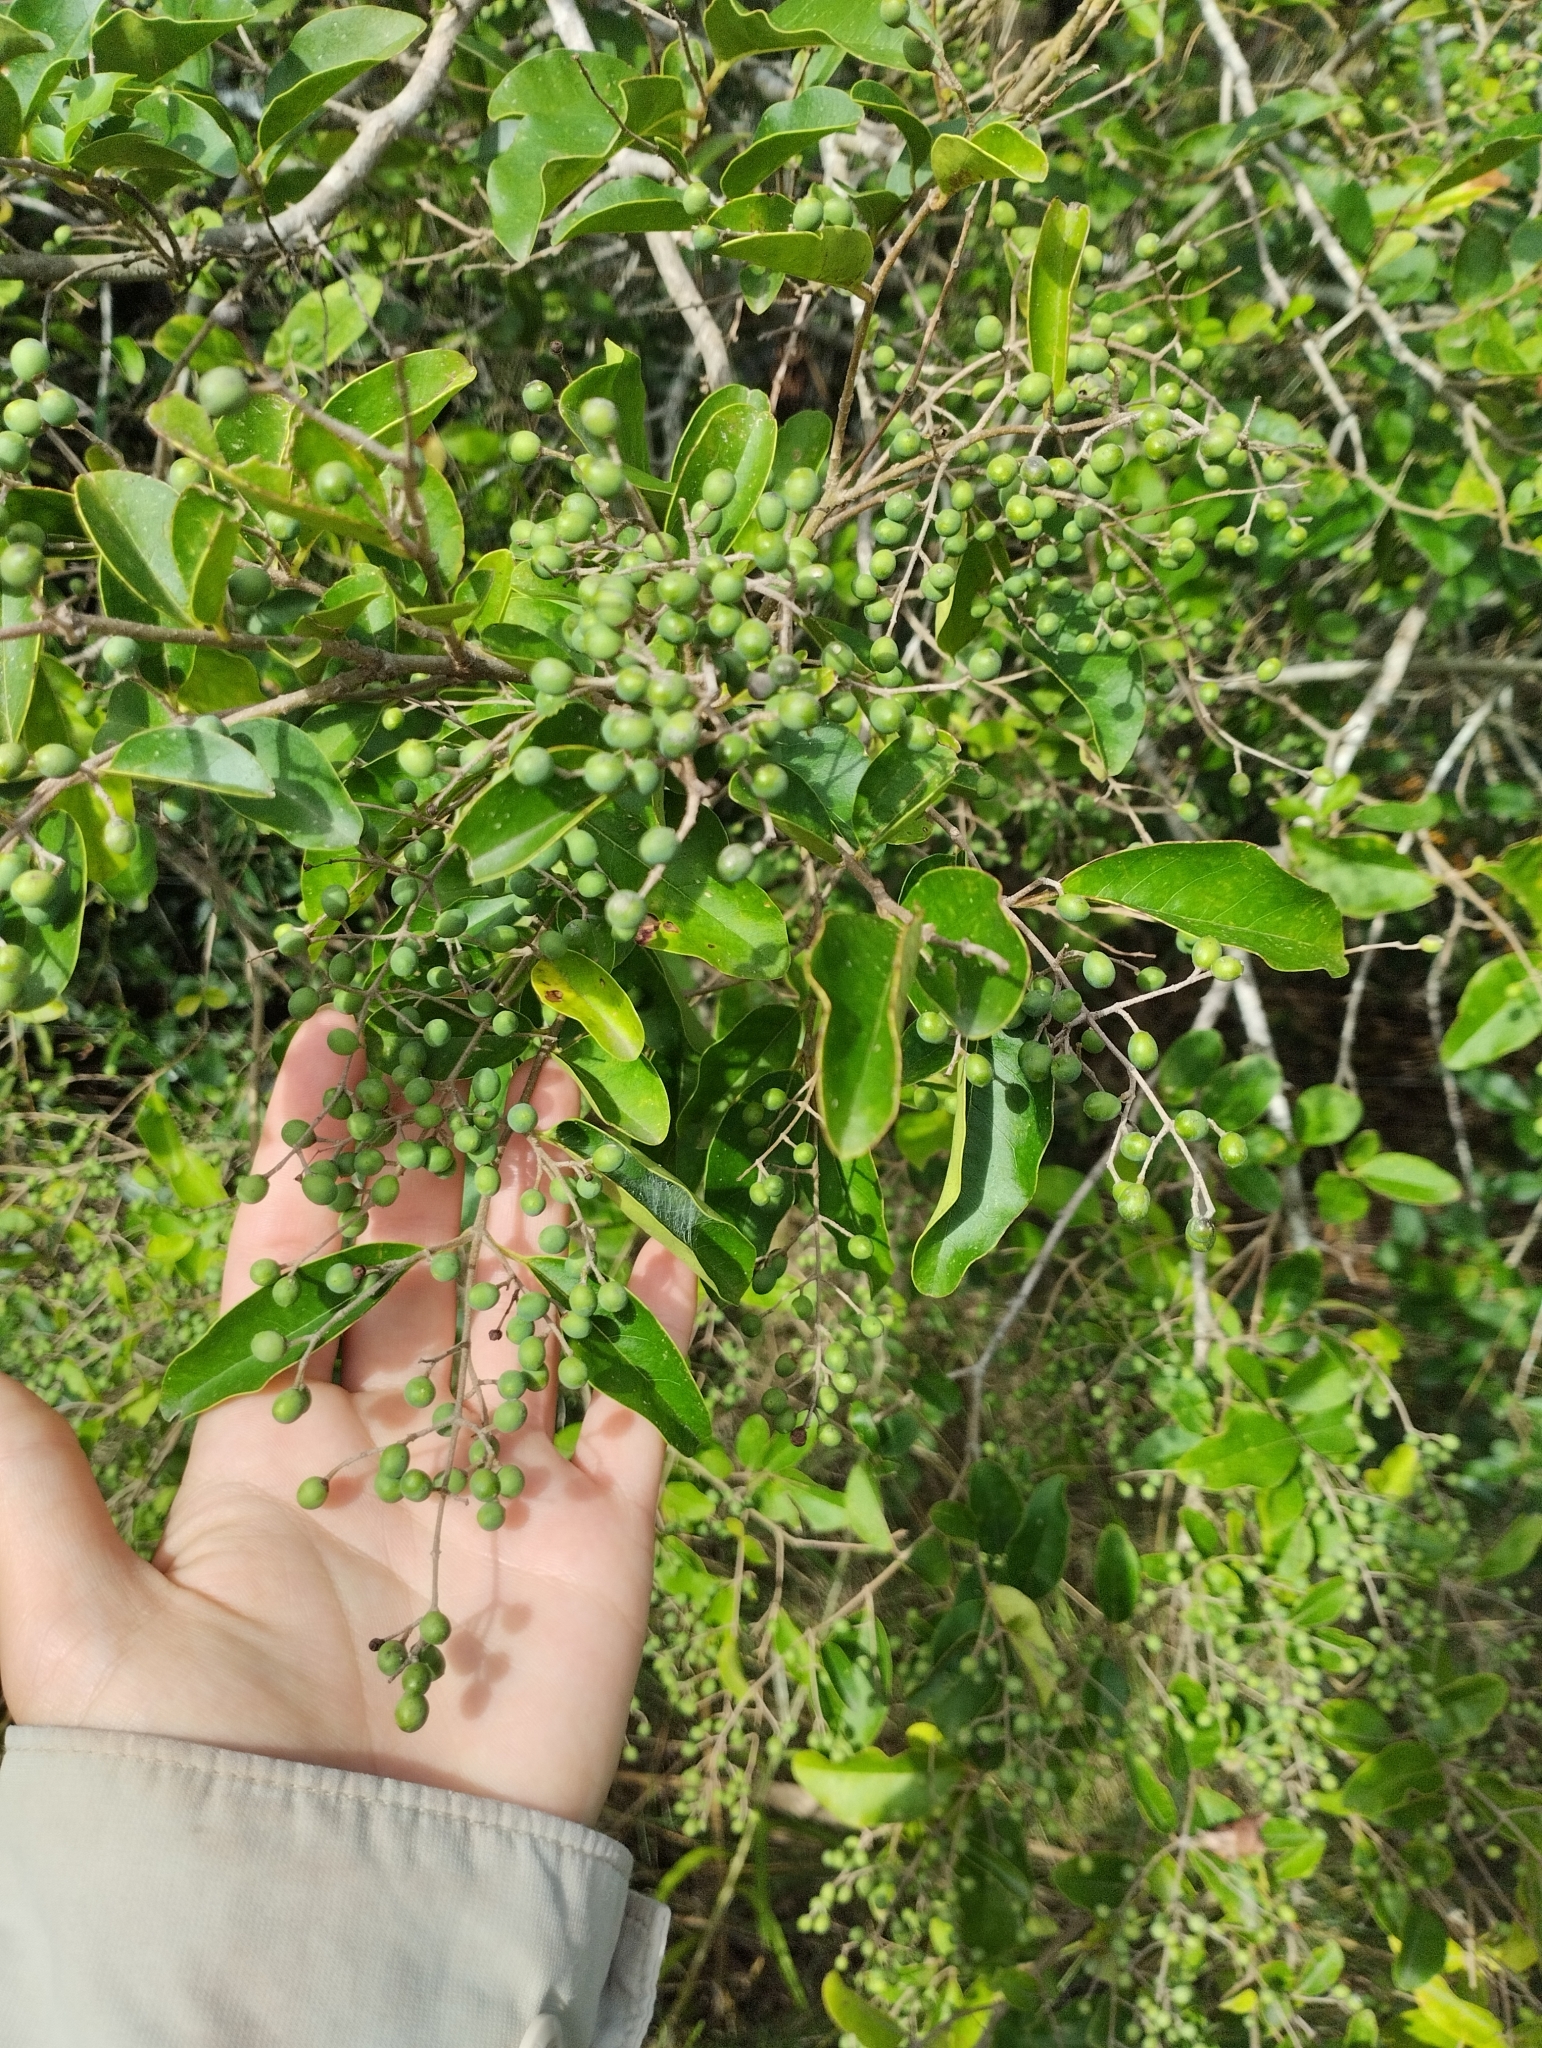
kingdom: Plantae
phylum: Tracheophyta
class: Magnoliopsida
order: Lamiales
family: Oleaceae
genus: Ligustrum
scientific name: Ligustrum sinense
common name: Chinese privet
